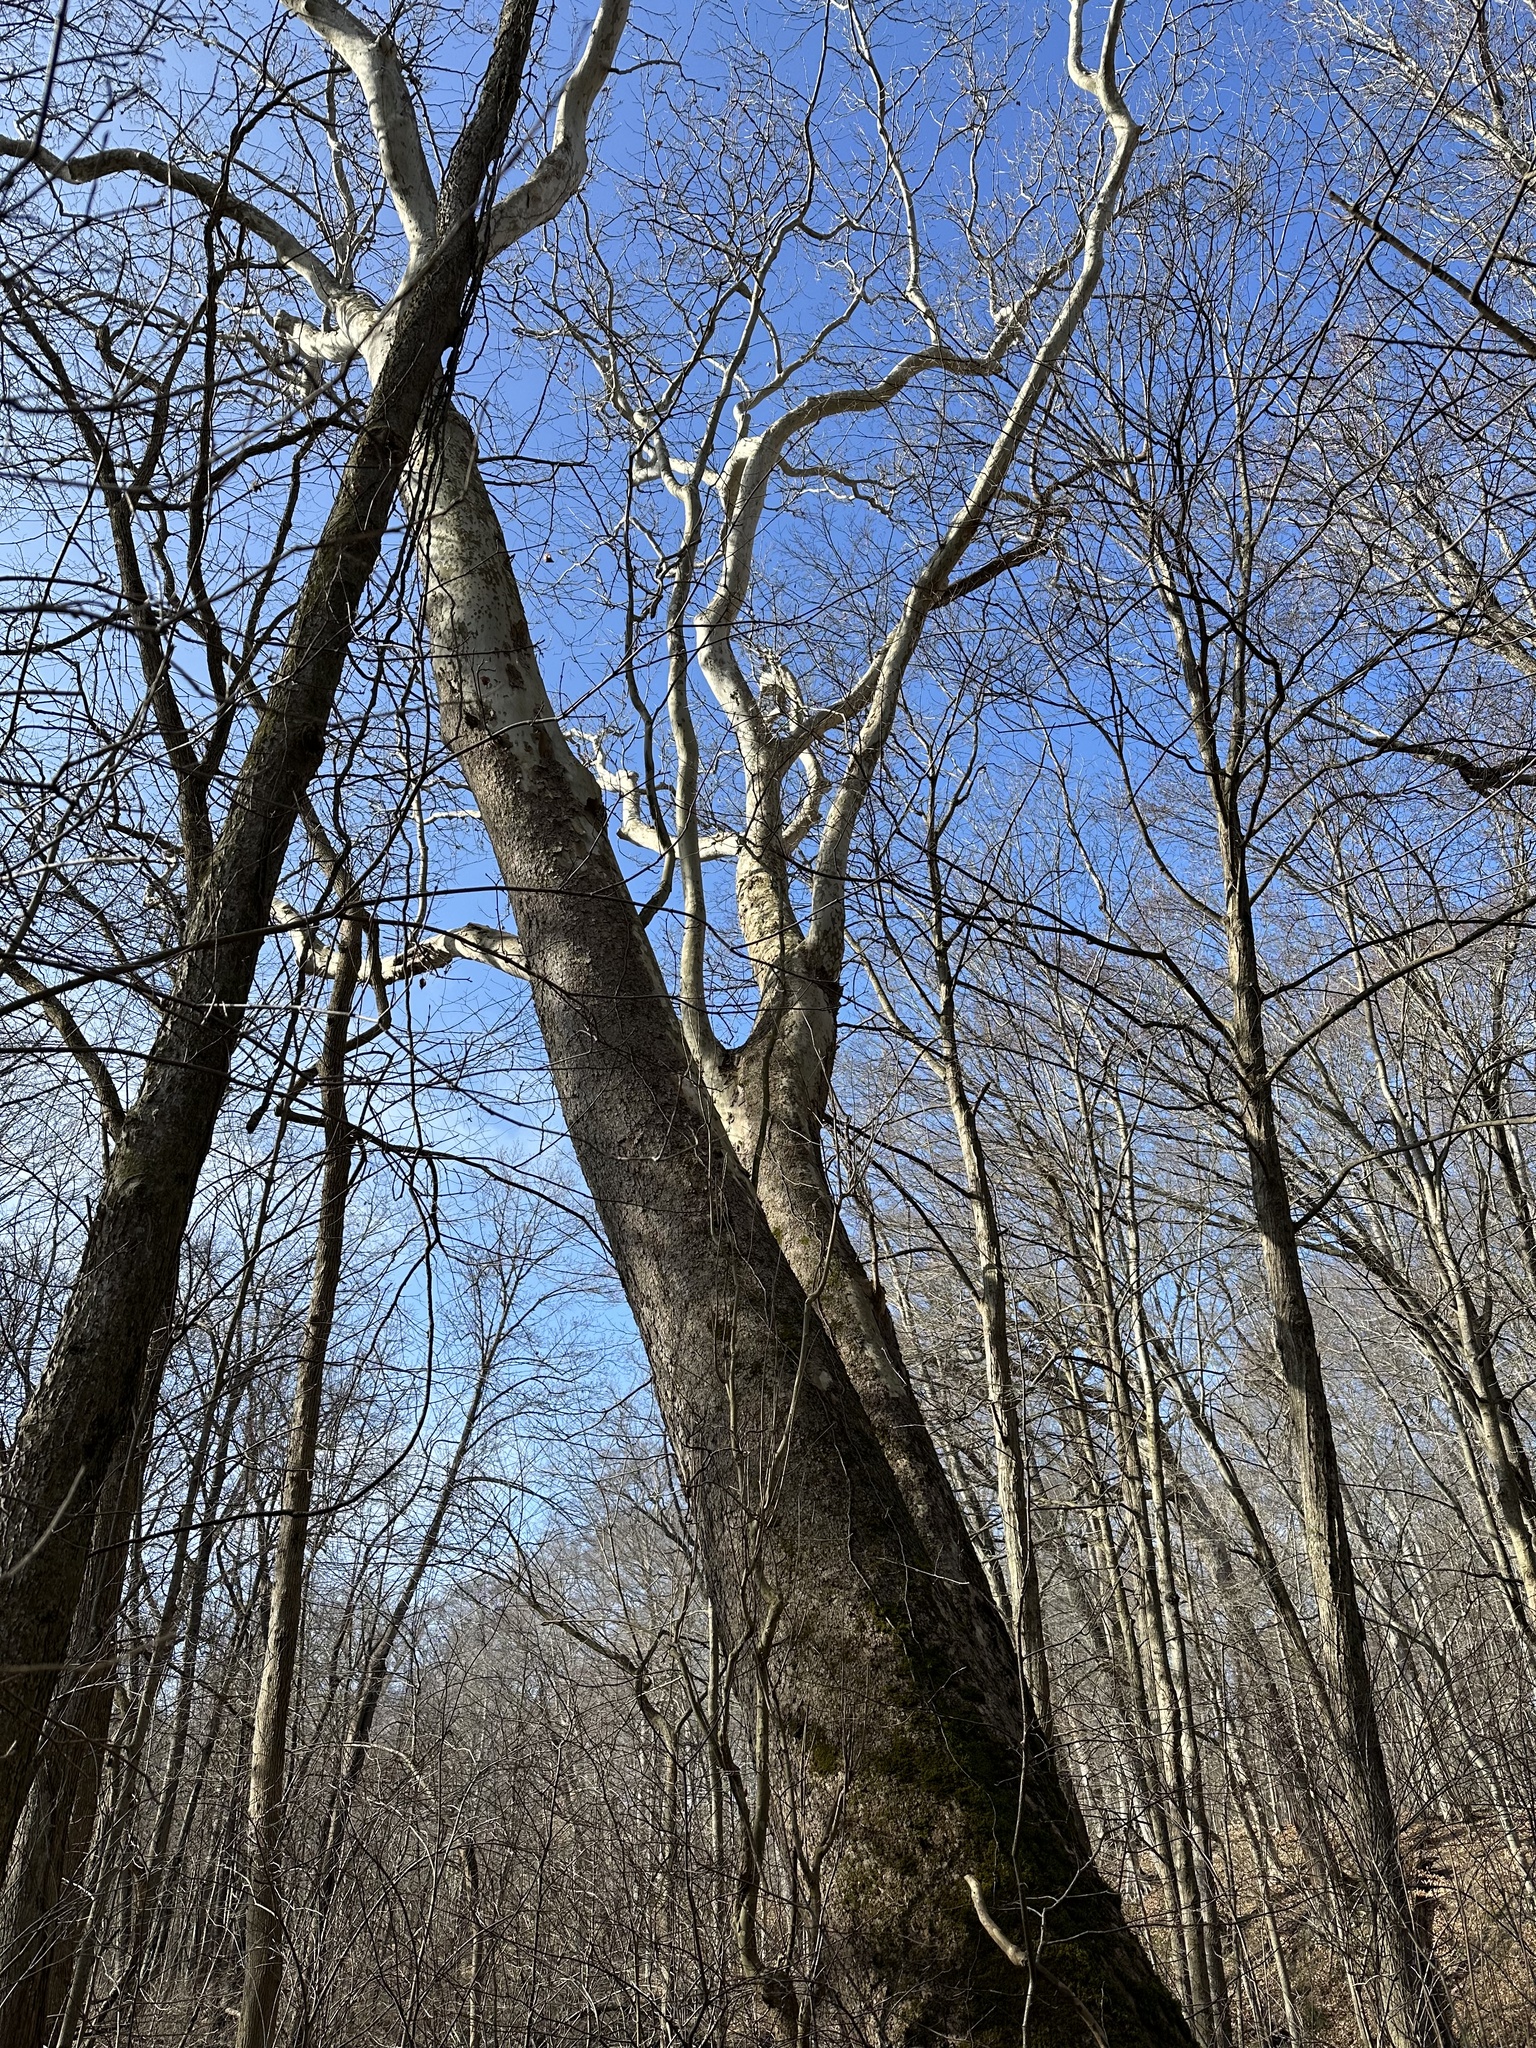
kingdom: Plantae
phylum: Tracheophyta
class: Magnoliopsida
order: Proteales
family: Platanaceae
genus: Platanus
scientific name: Platanus occidentalis
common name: American sycamore
